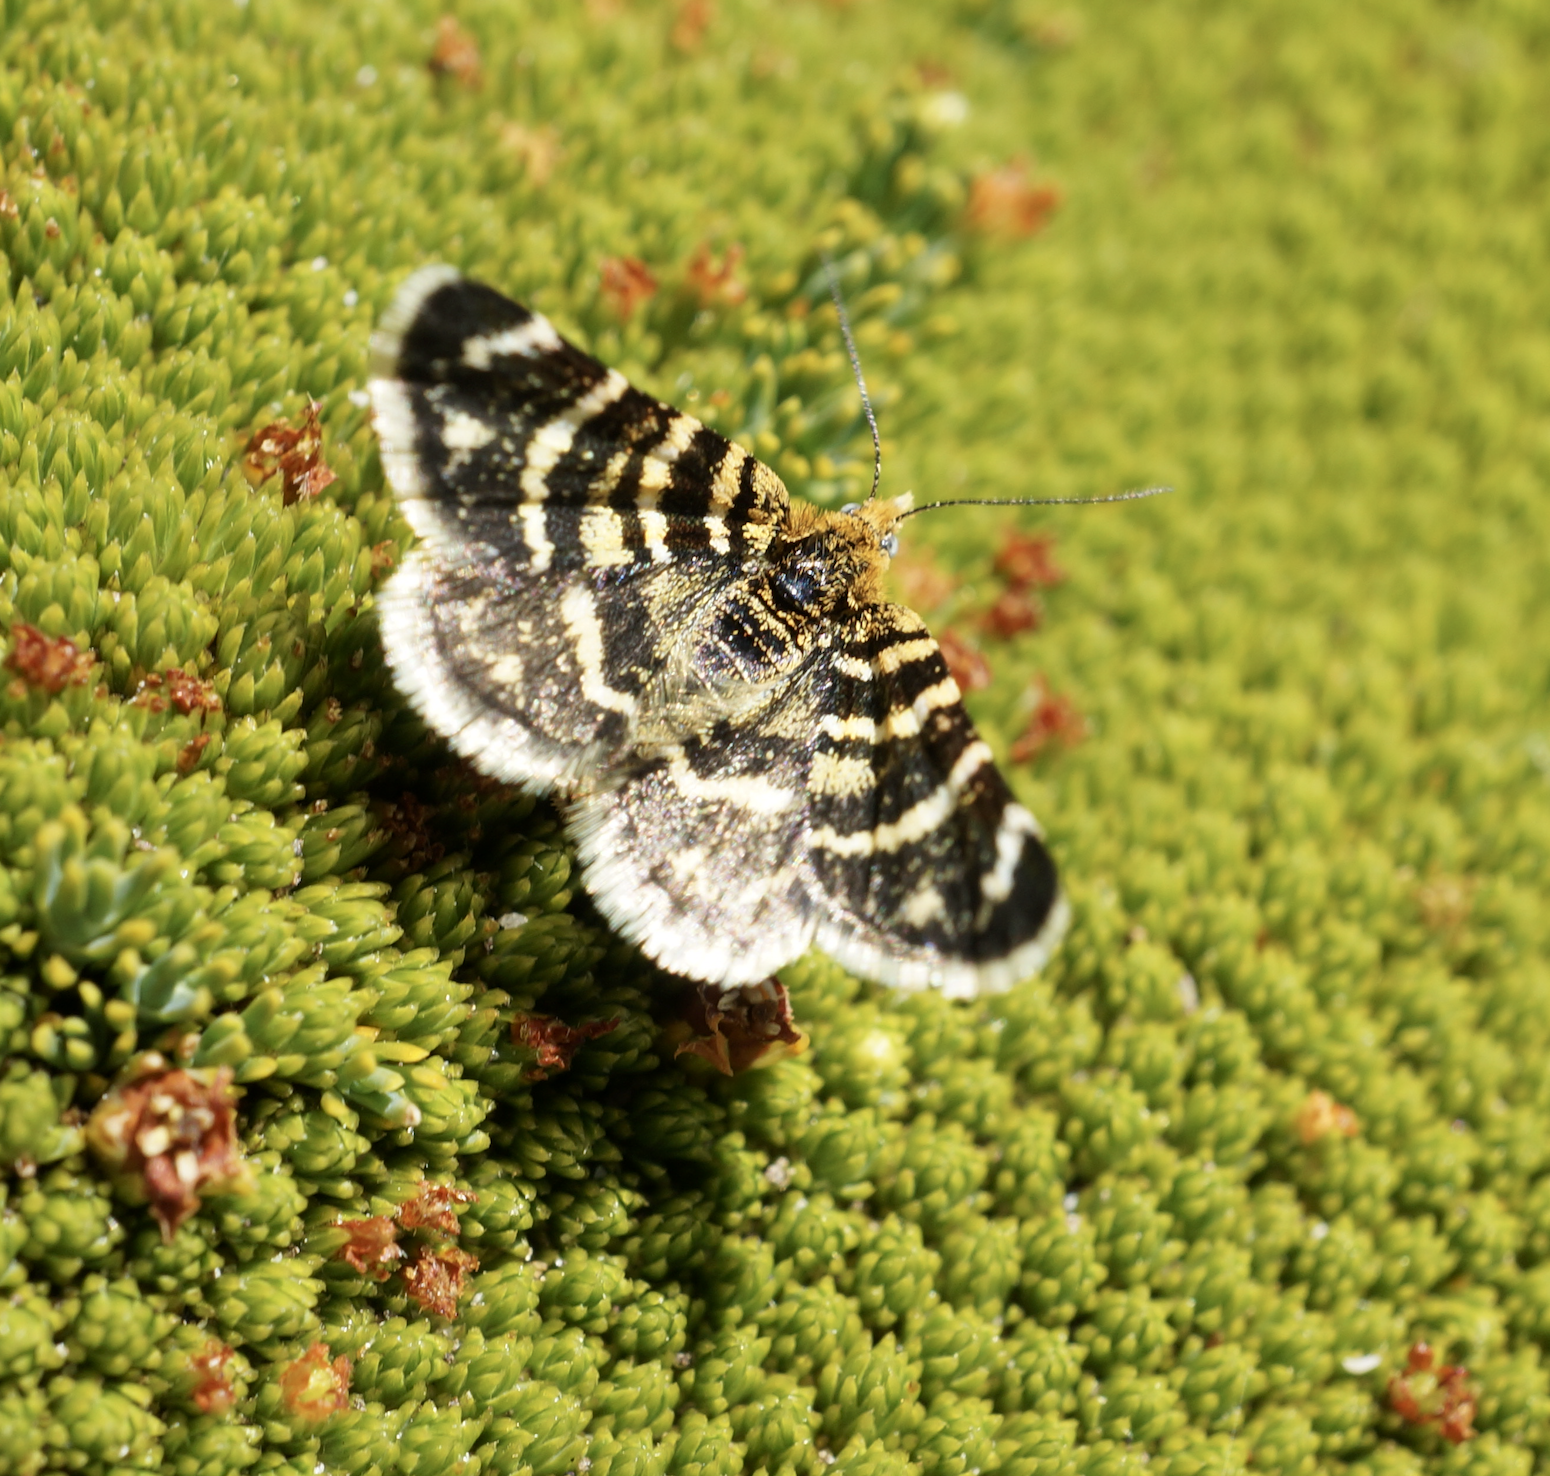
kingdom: Animalia
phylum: Arthropoda
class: Insecta
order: Lepidoptera
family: Geometridae
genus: Notoreas
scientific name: Notoreas ortholeuca
